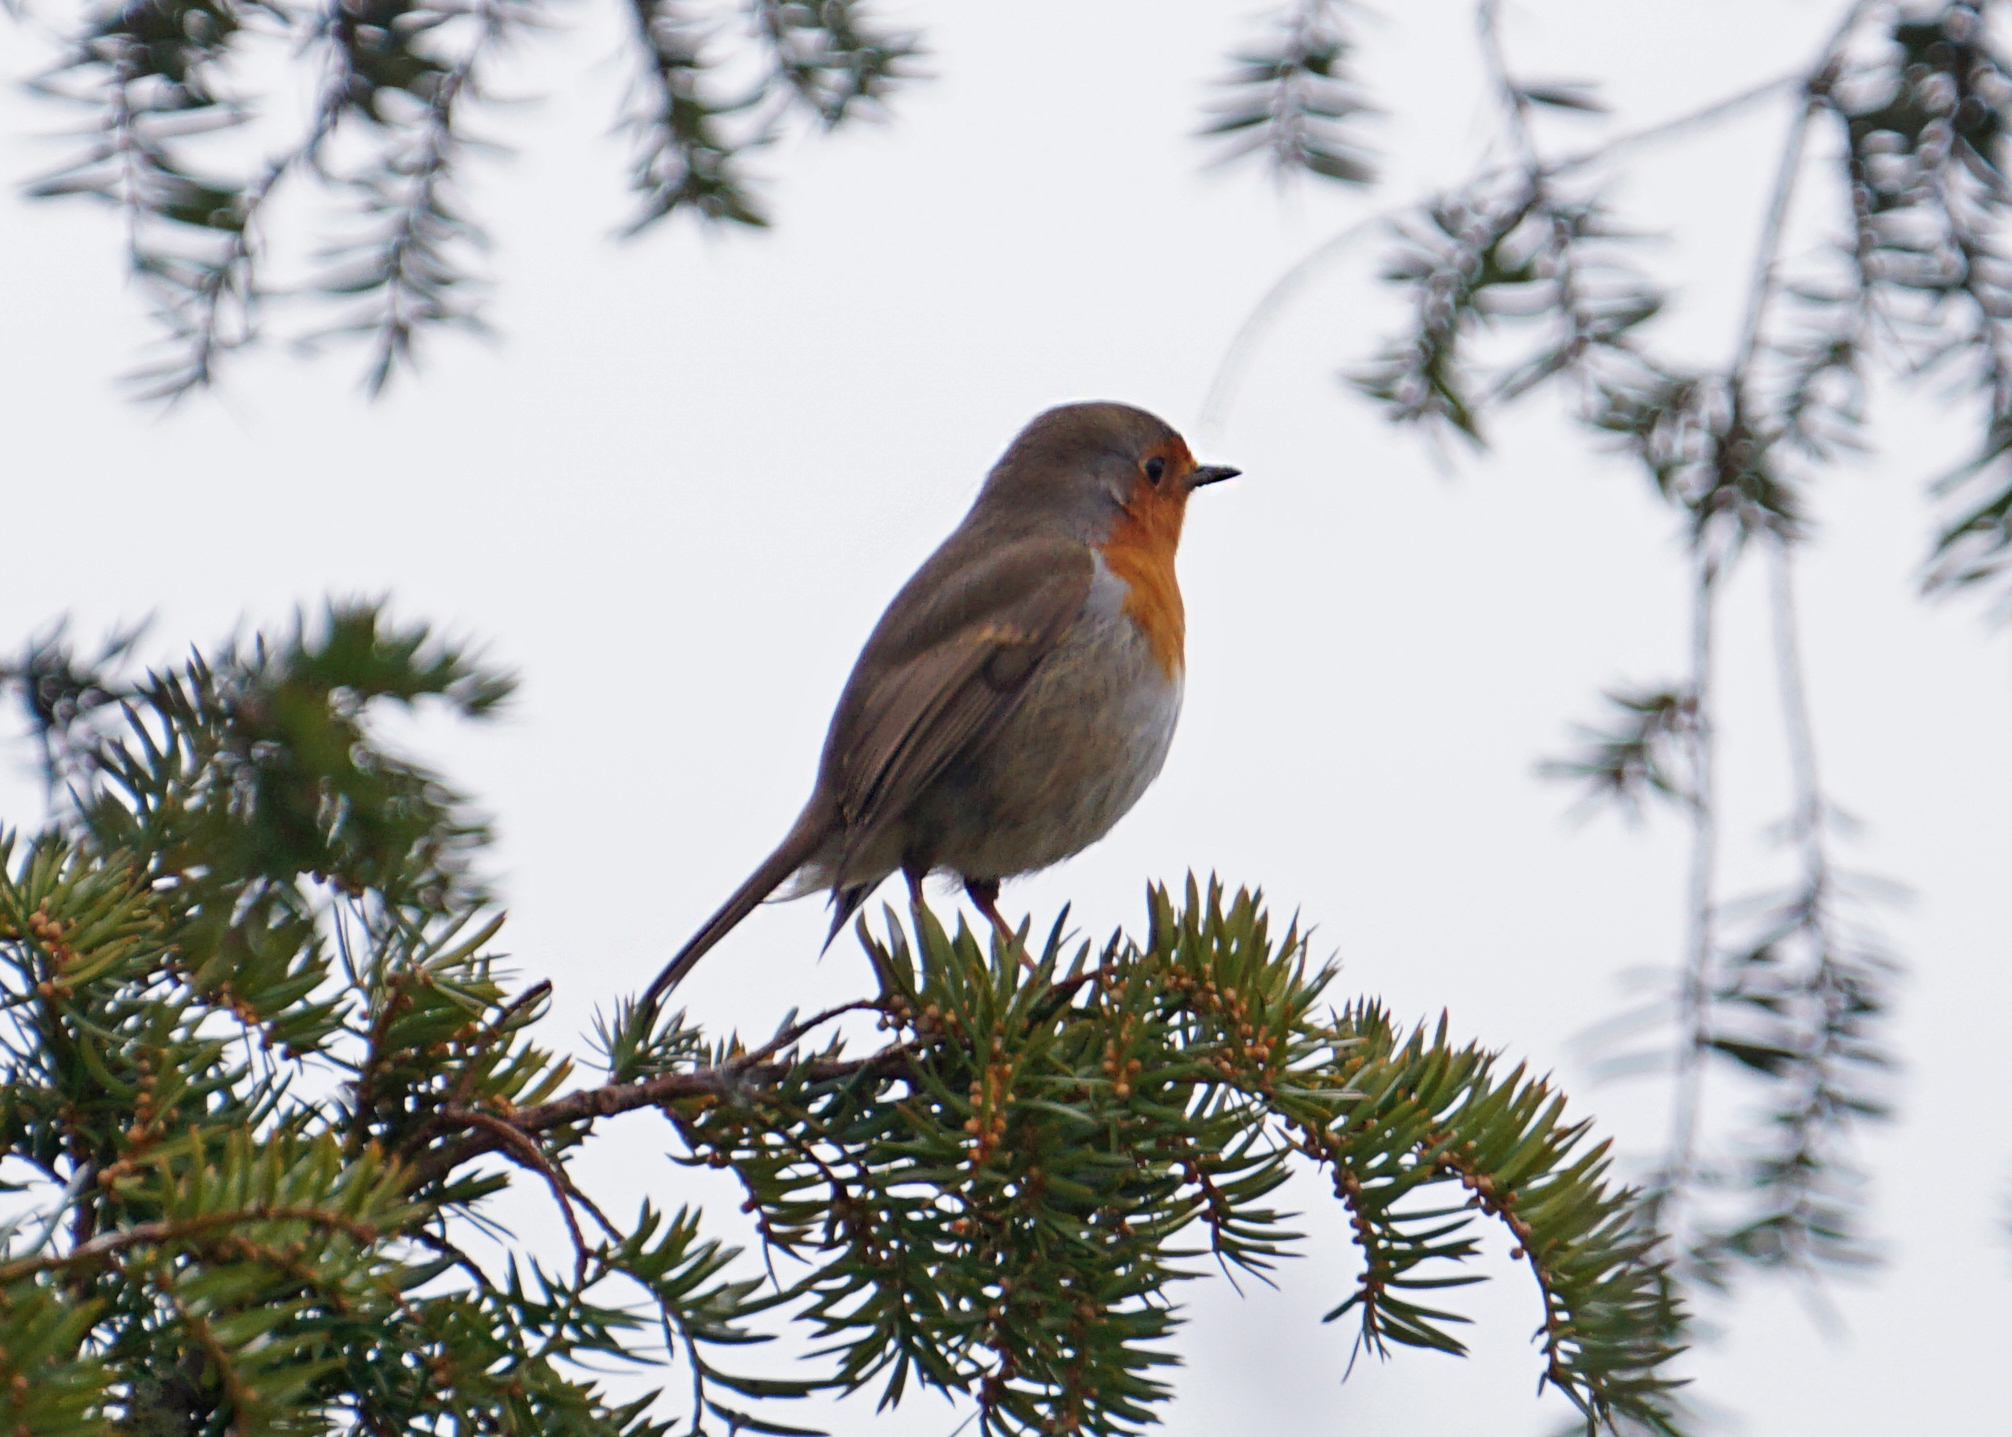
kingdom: Animalia
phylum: Chordata
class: Aves
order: Passeriformes
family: Muscicapidae
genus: Erithacus
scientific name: Erithacus rubecula
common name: European robin
